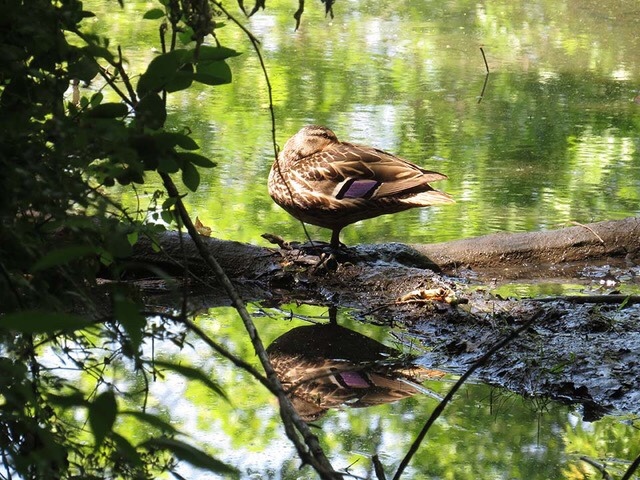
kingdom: Animalia
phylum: Chordata
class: Aves
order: Anseriformes
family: Anatidae
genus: Anas
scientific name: Anas platyrhynchos
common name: Mallard
